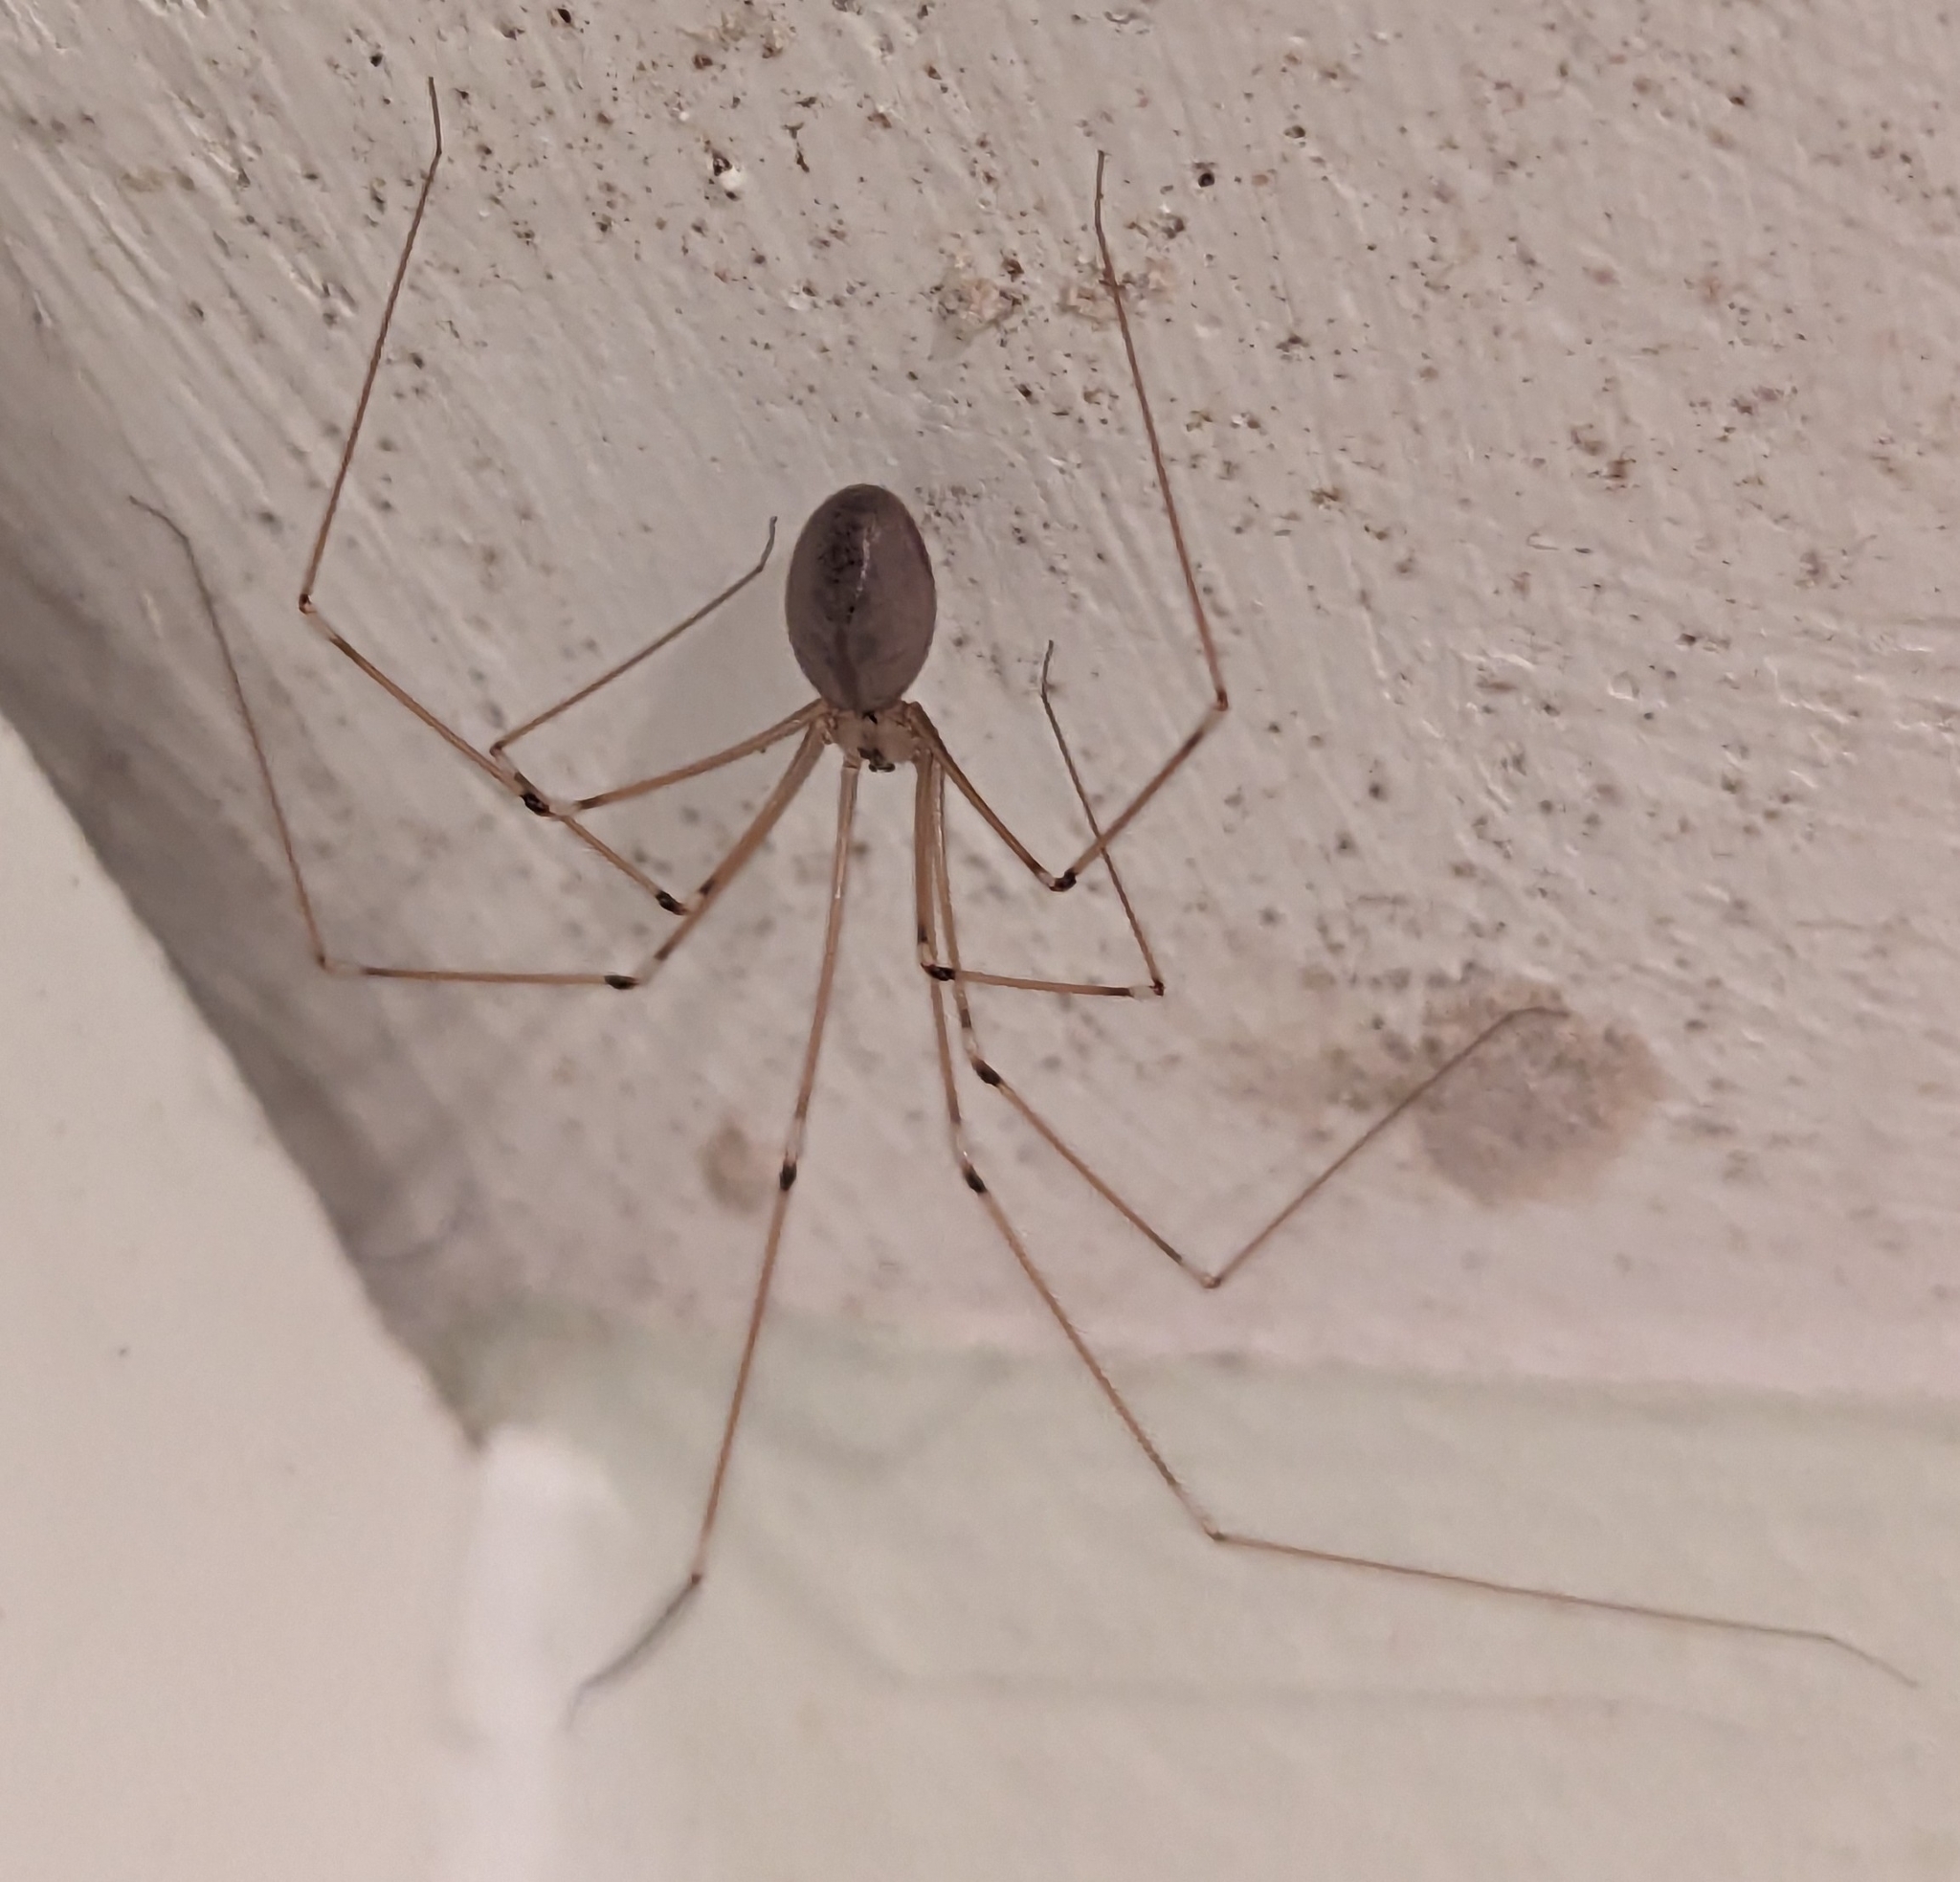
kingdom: Animalia
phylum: Arthropoda
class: Arachnida
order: Araneae
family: Pholcidae
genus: Pholcus
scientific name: Pholcus phalangioides
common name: Longbodied cellar spider
